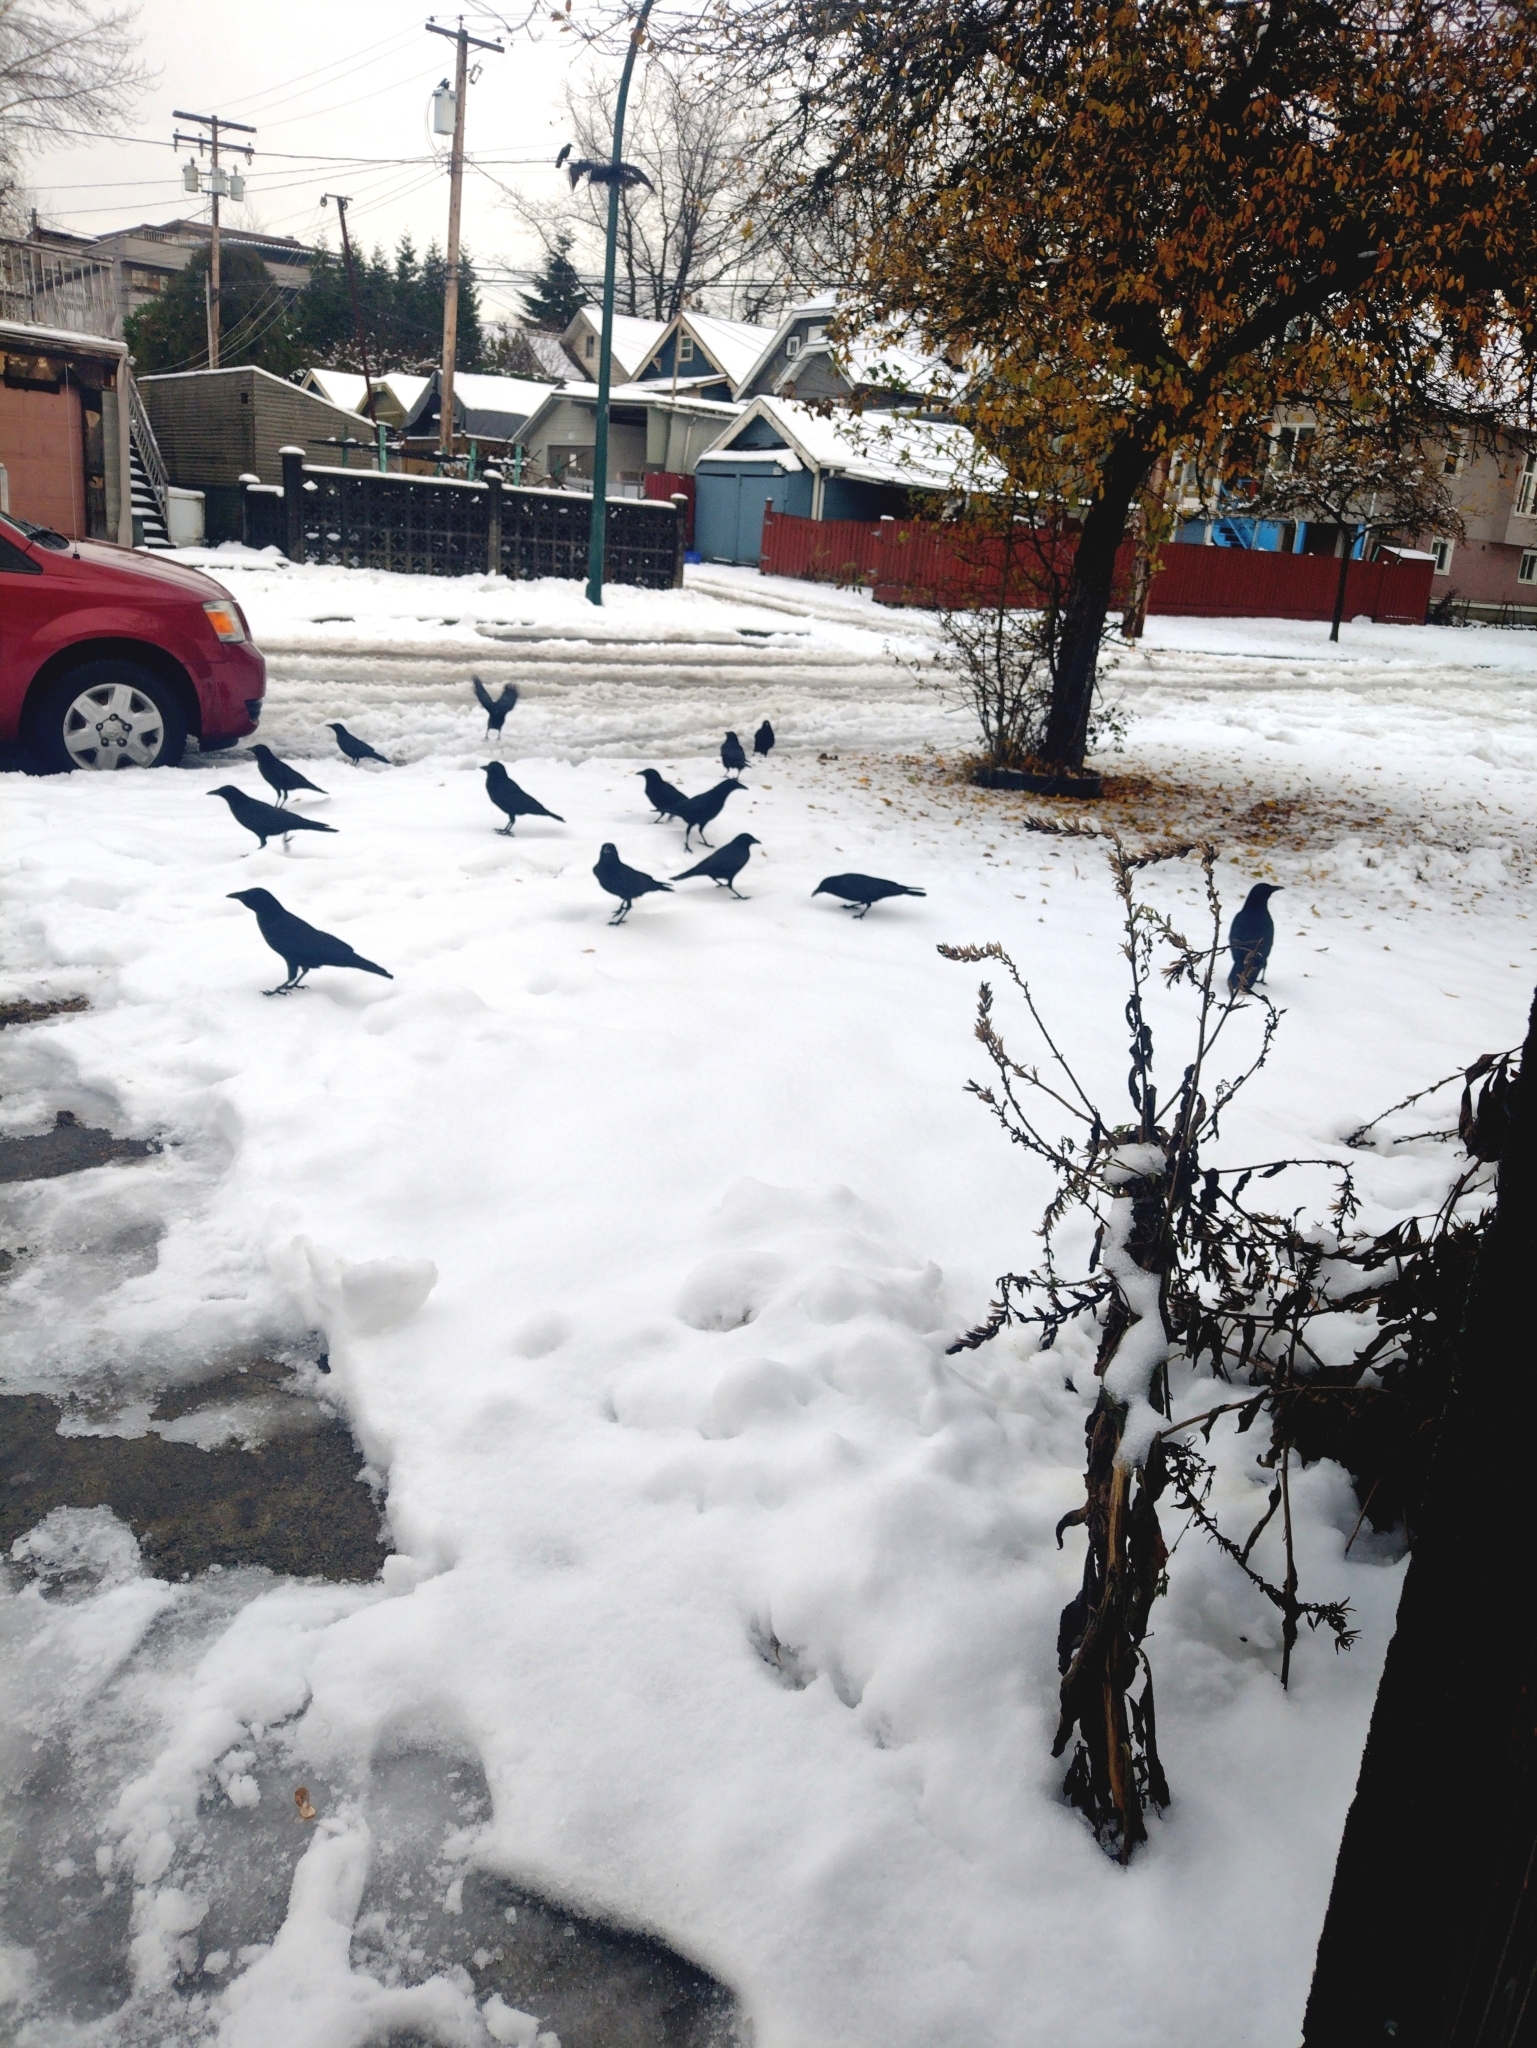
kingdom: Animalia
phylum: Chordata
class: Aves
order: Passeriformes
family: Corvidae
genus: Corvus
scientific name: Corvus brachyrhynchos
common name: American crow
